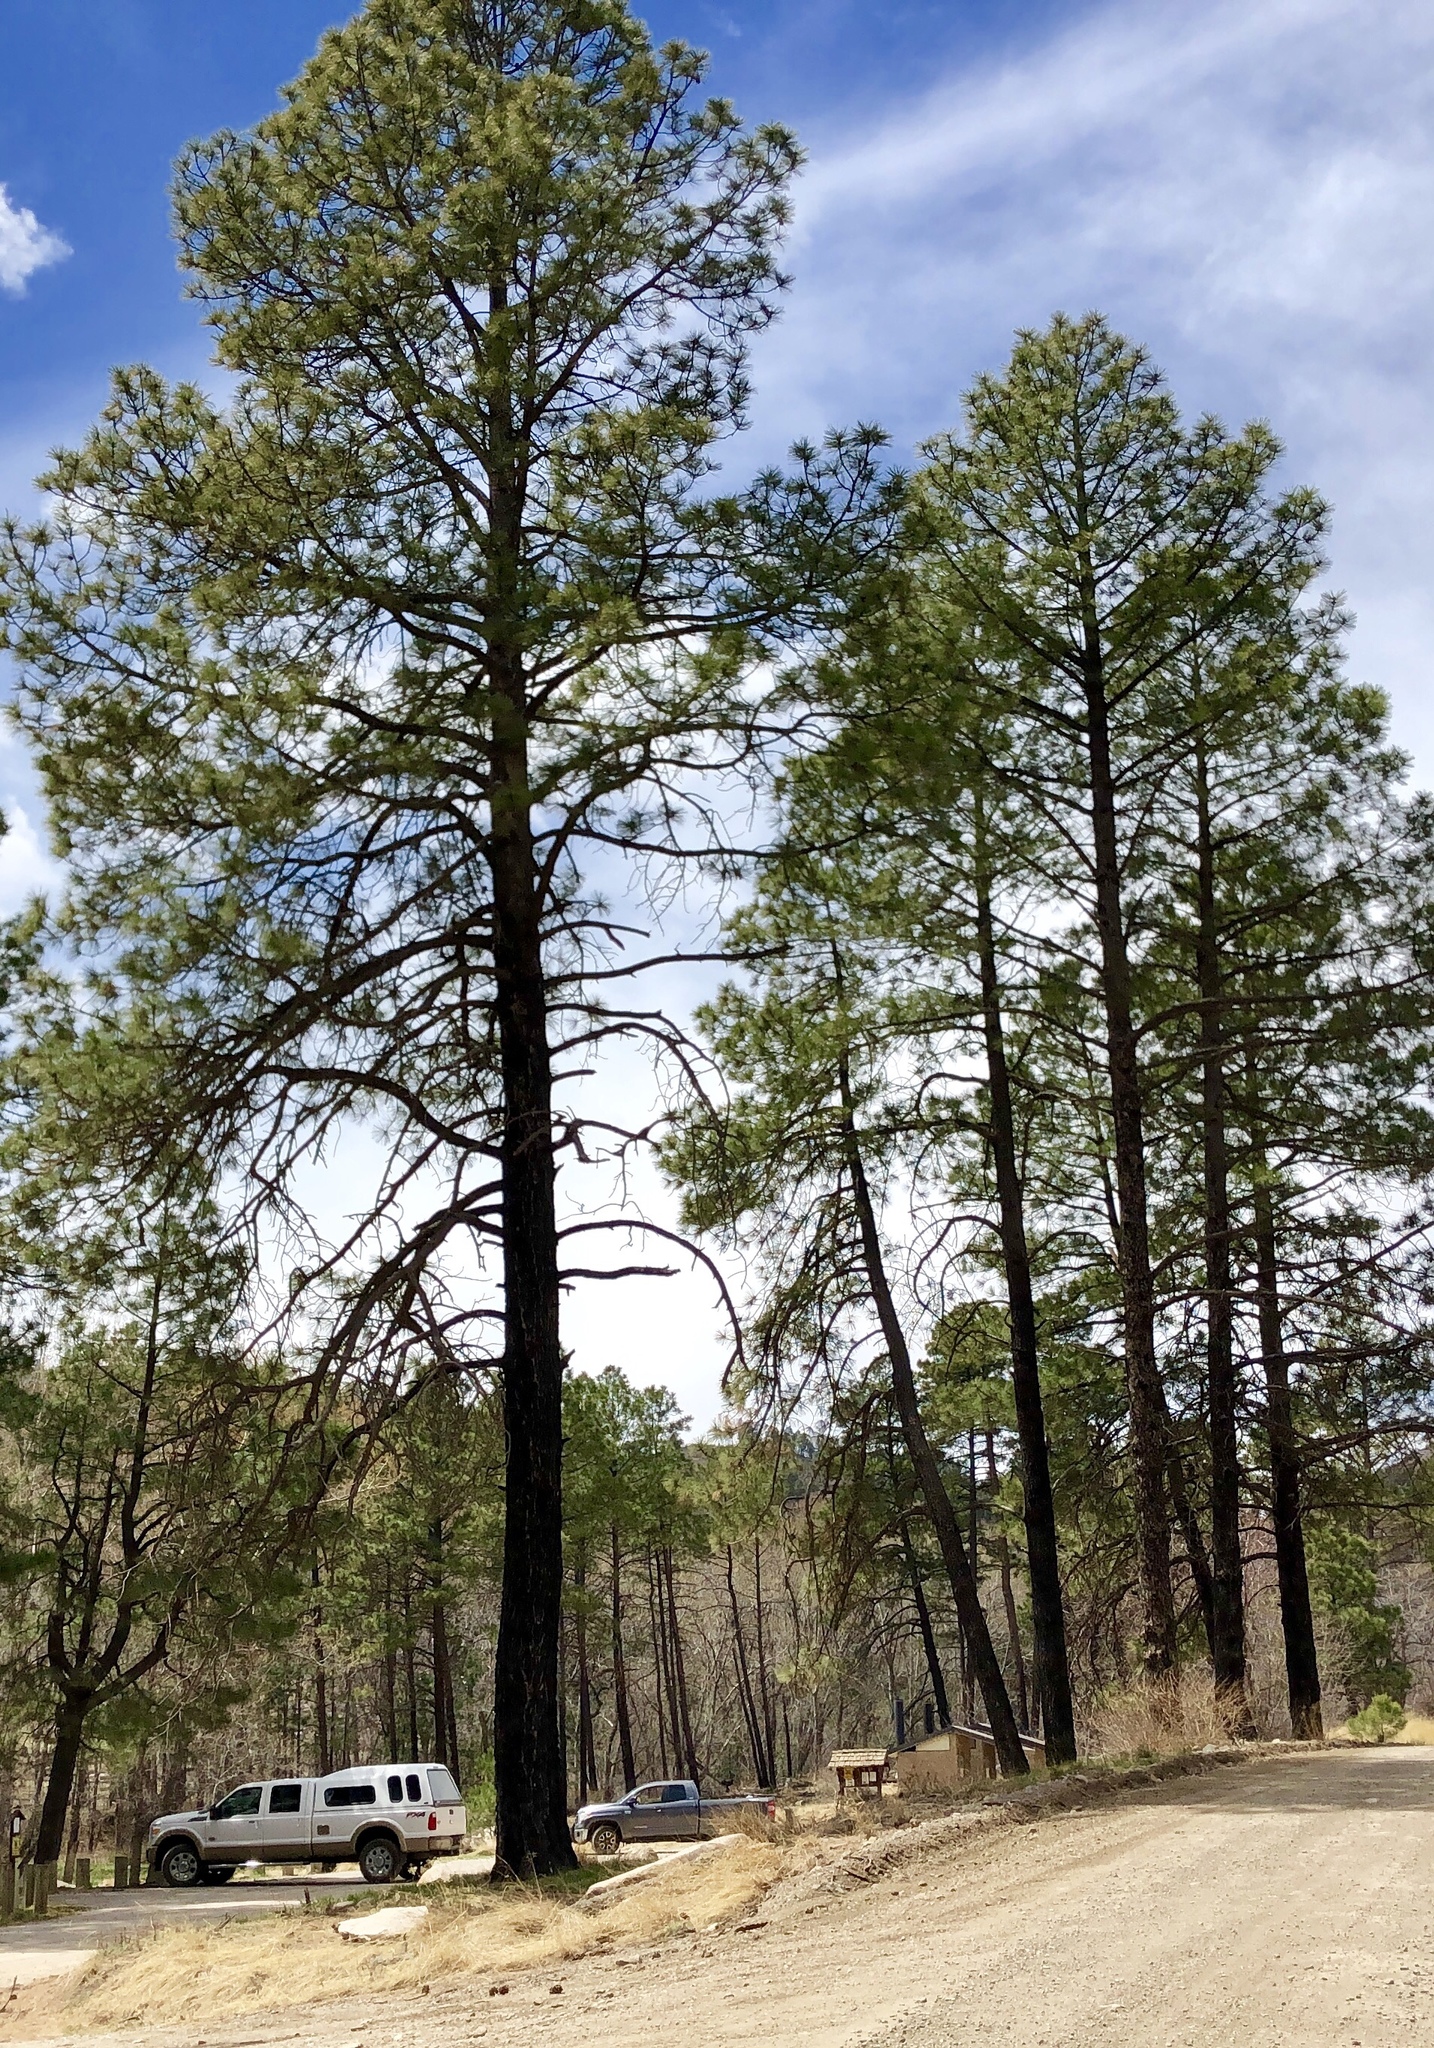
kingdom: Plantae
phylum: Tracheophyta
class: Pinopsida
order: Pinales
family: Pinaceae
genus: Pinus
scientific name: Pinus ponderosa
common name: Western yellow-pine
